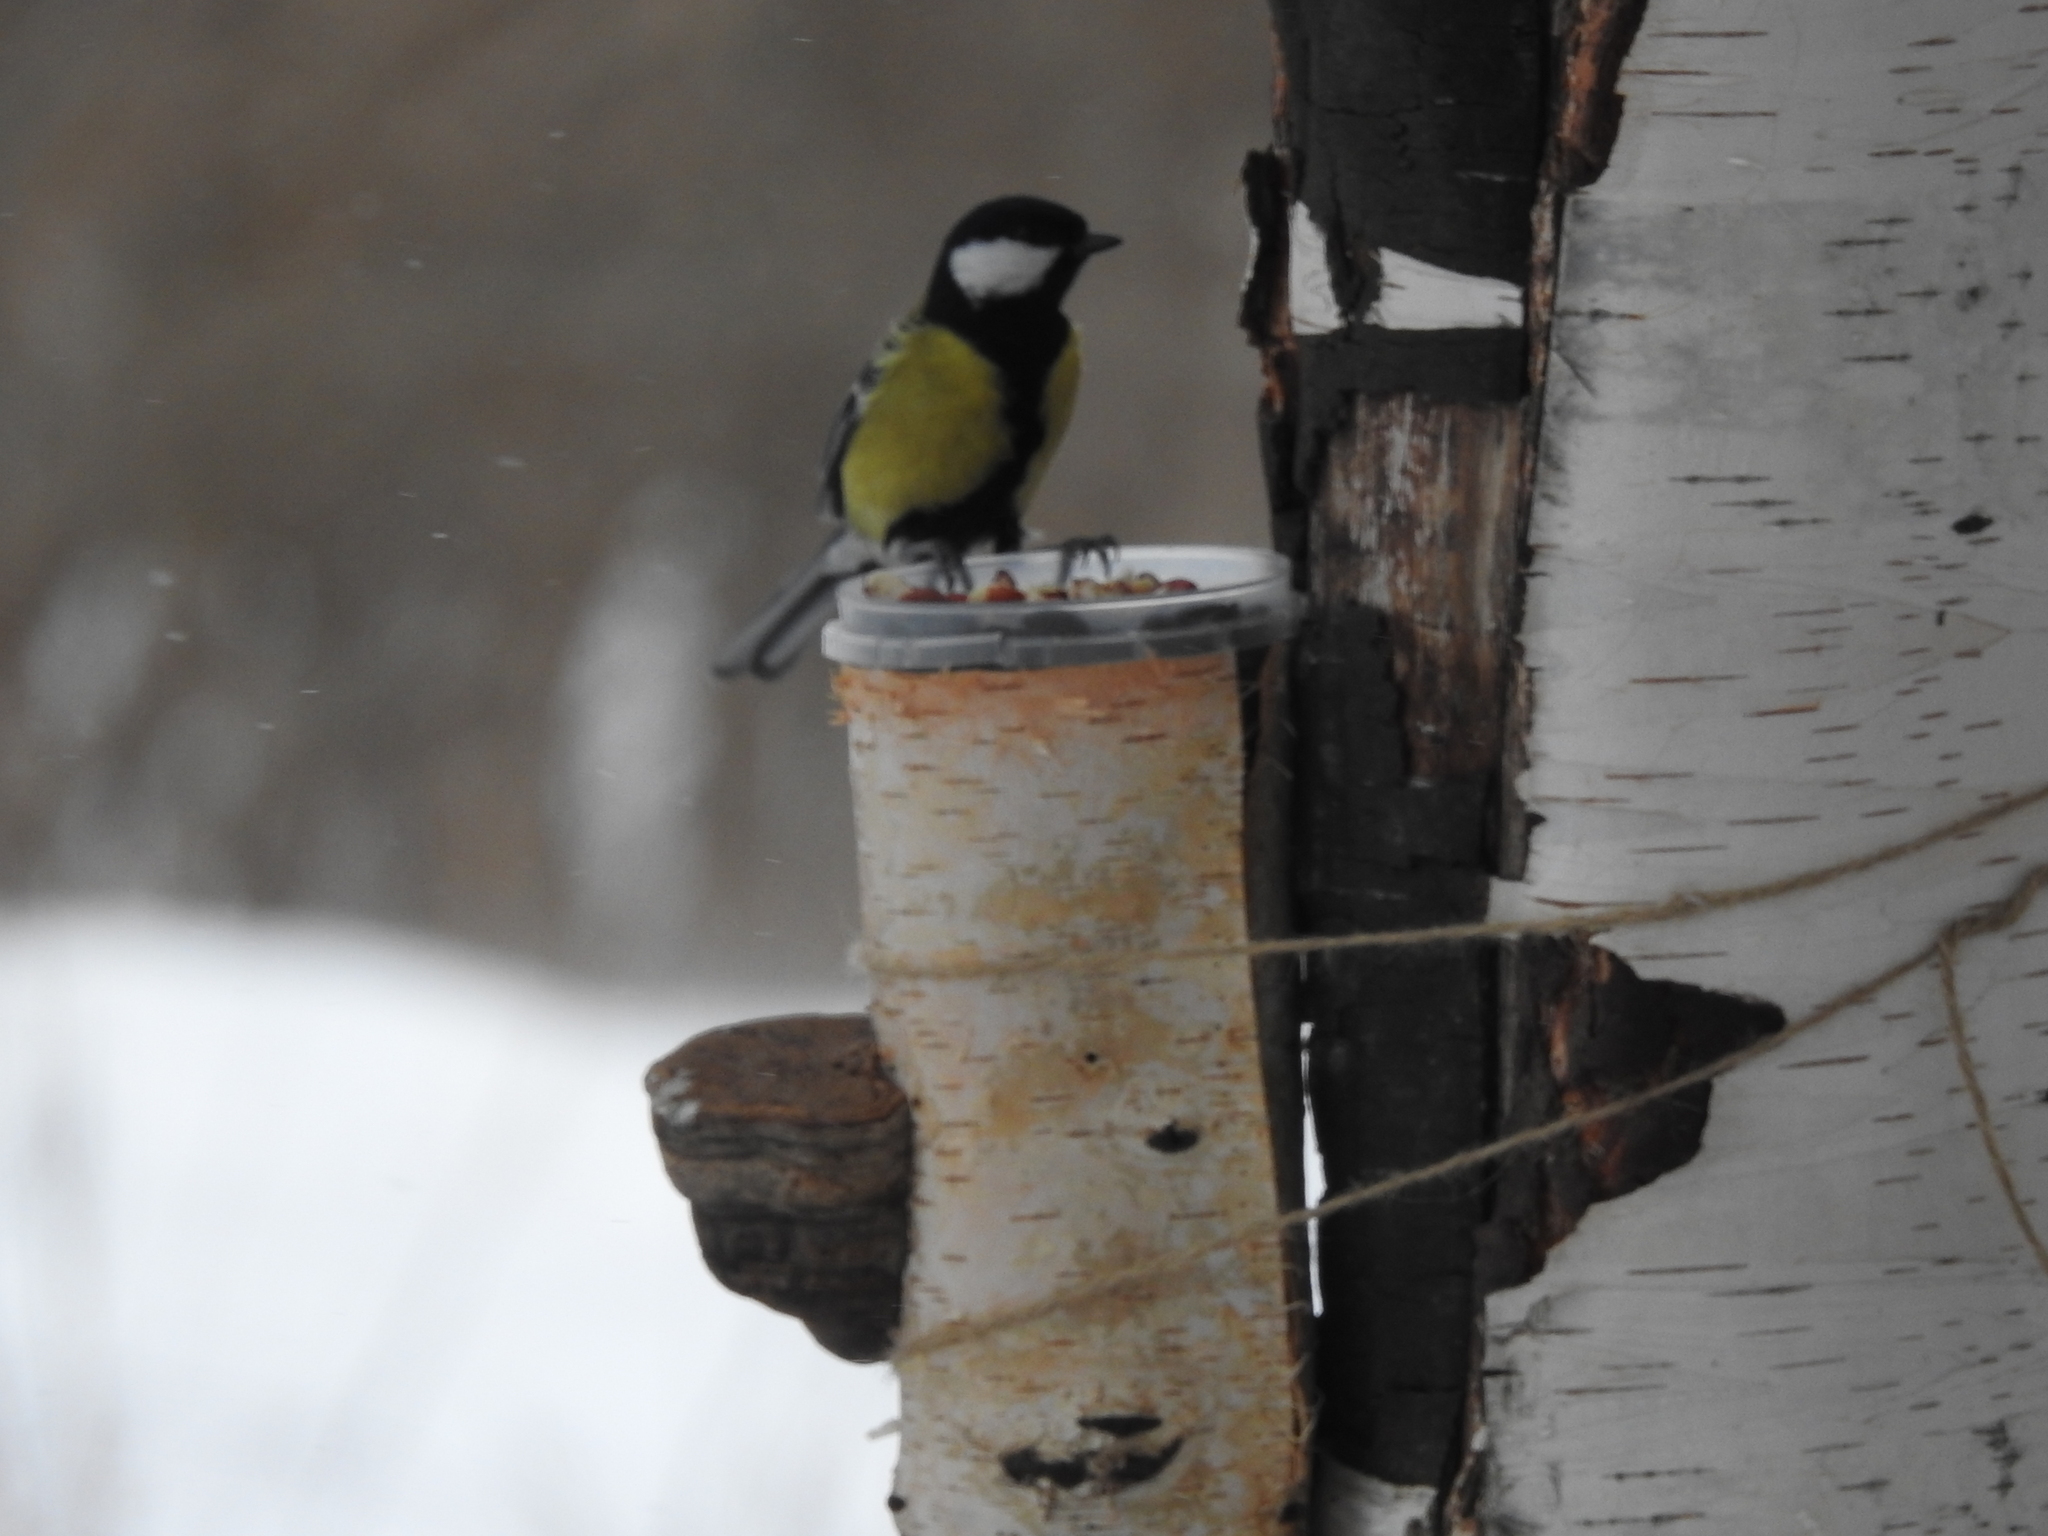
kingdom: Animalia
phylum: Chordata
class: Aves
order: Passeriformes
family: Paridae
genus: Parus
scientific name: Parus major
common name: Great tit
